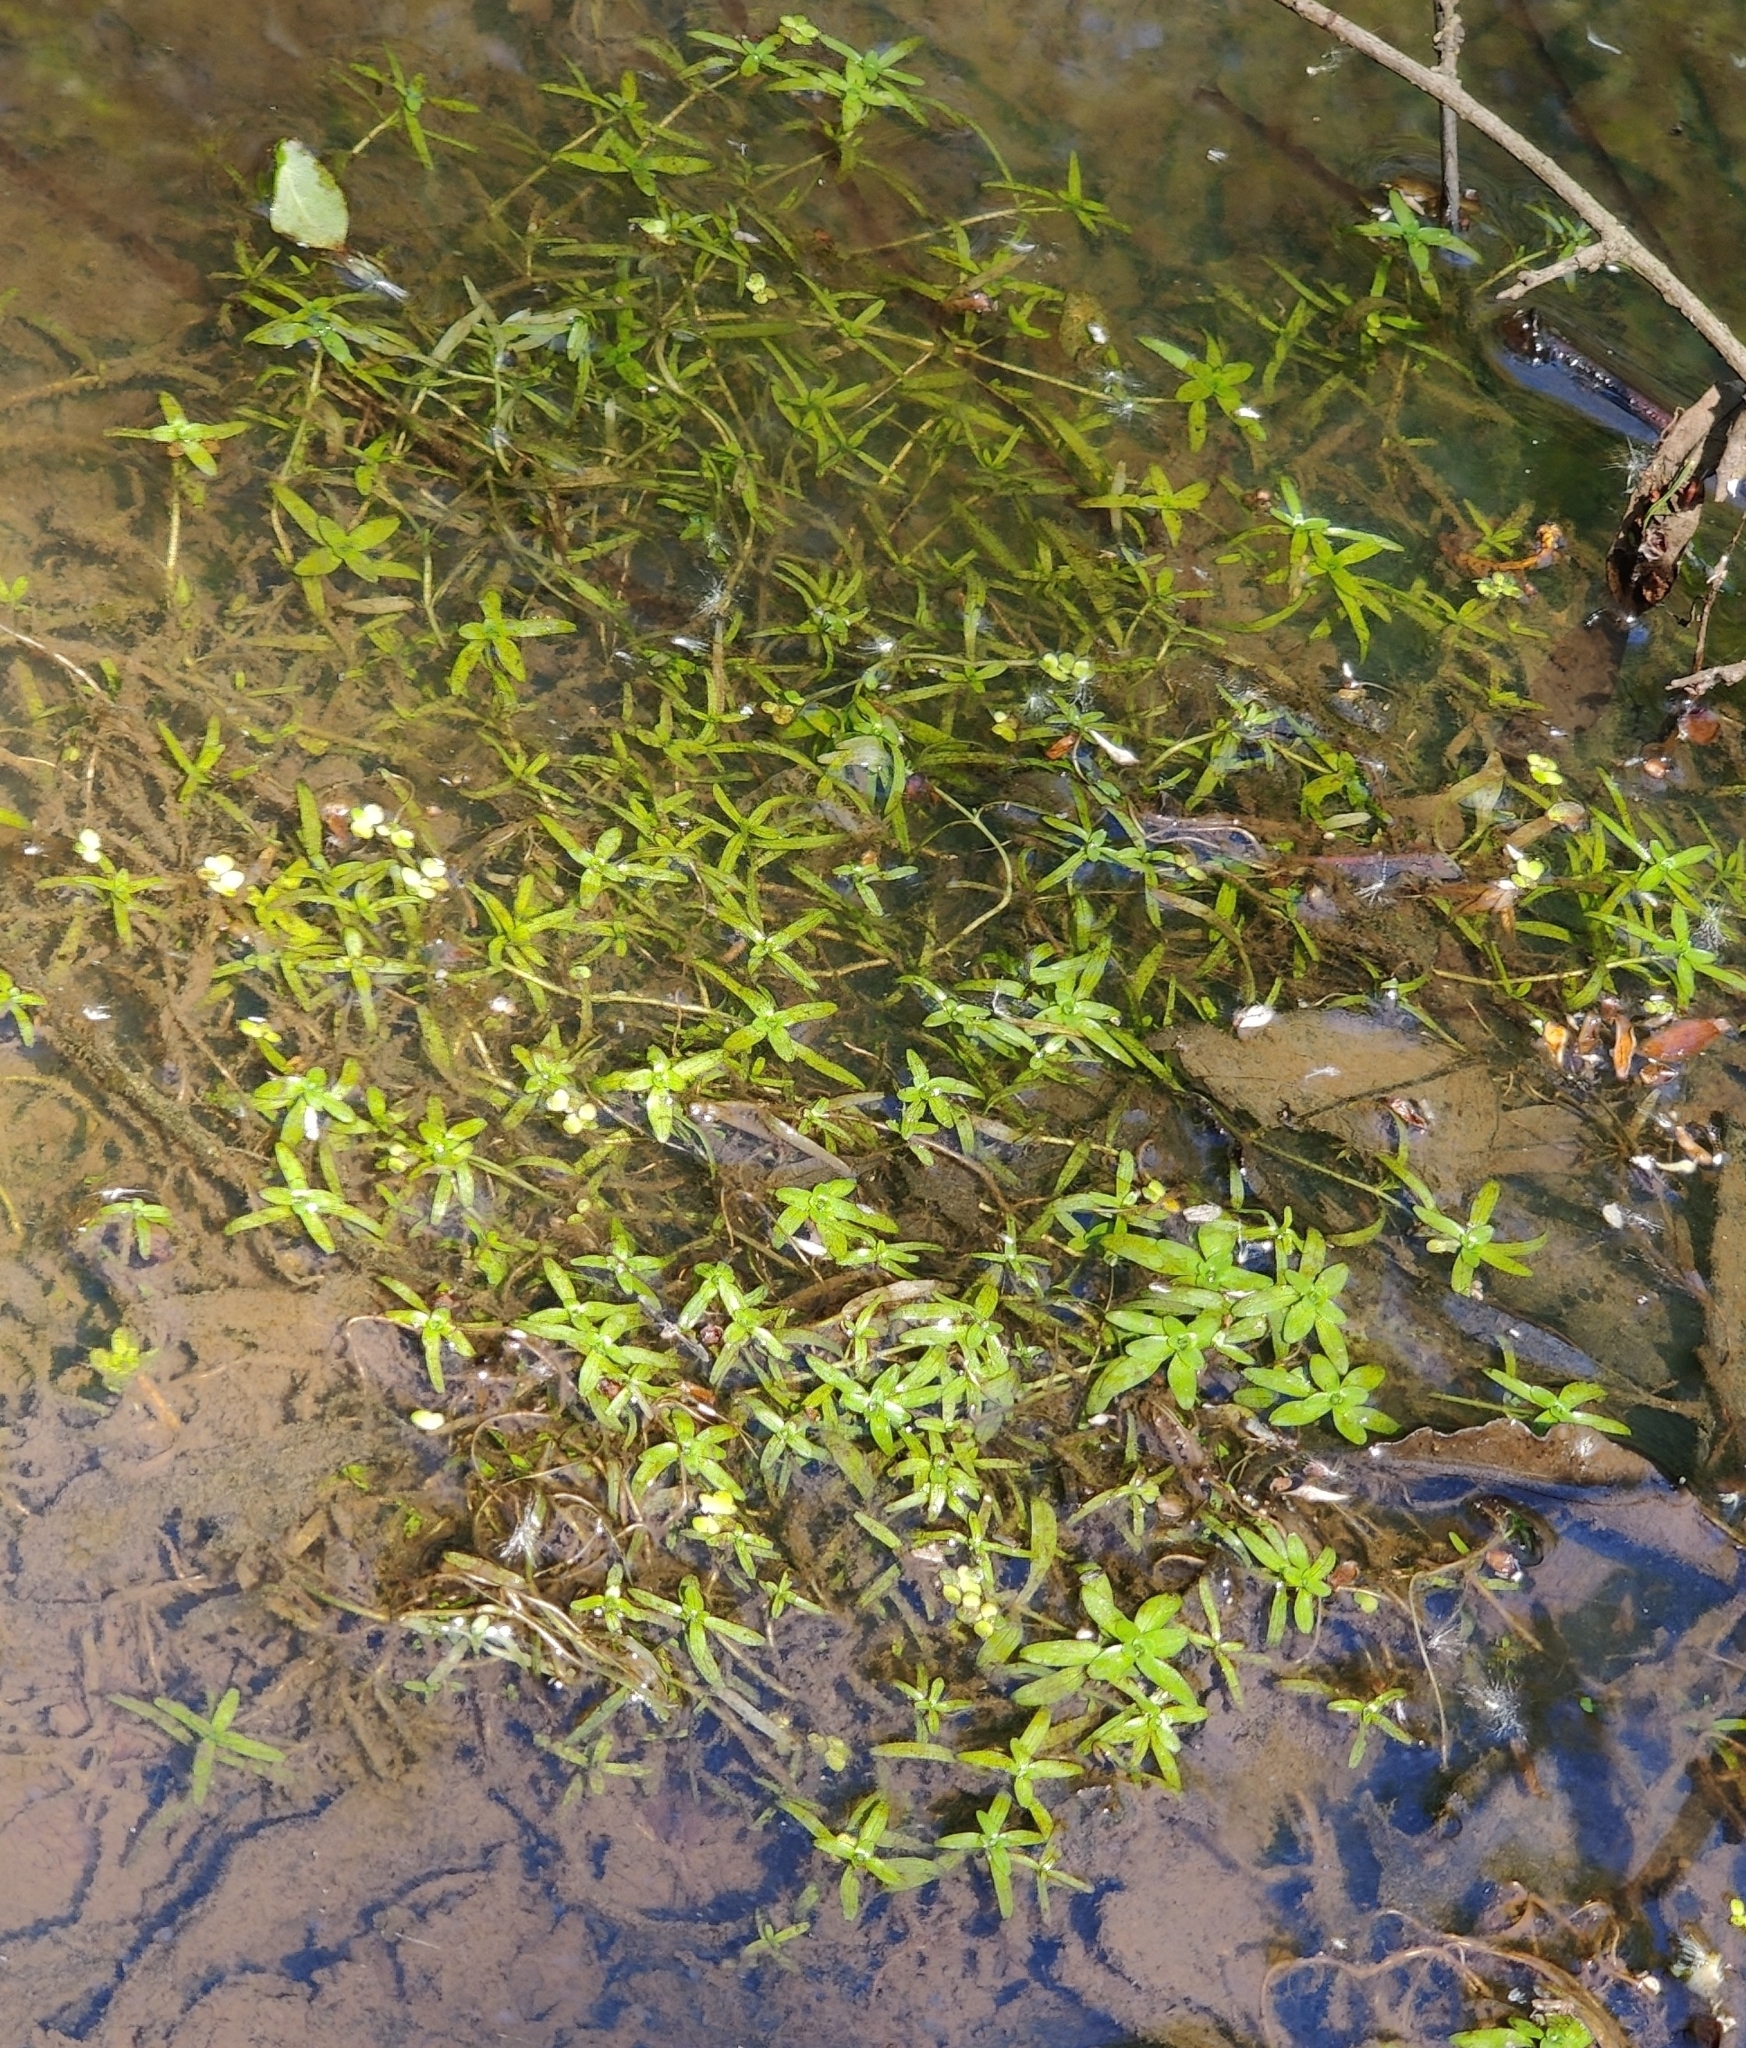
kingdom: Plantae
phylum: Tracheophyta
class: Magnoliopsida
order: Lamiales
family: Plantaginaceae
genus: Callitriche
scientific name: Callitriche stagnalis
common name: Common water-starwort
